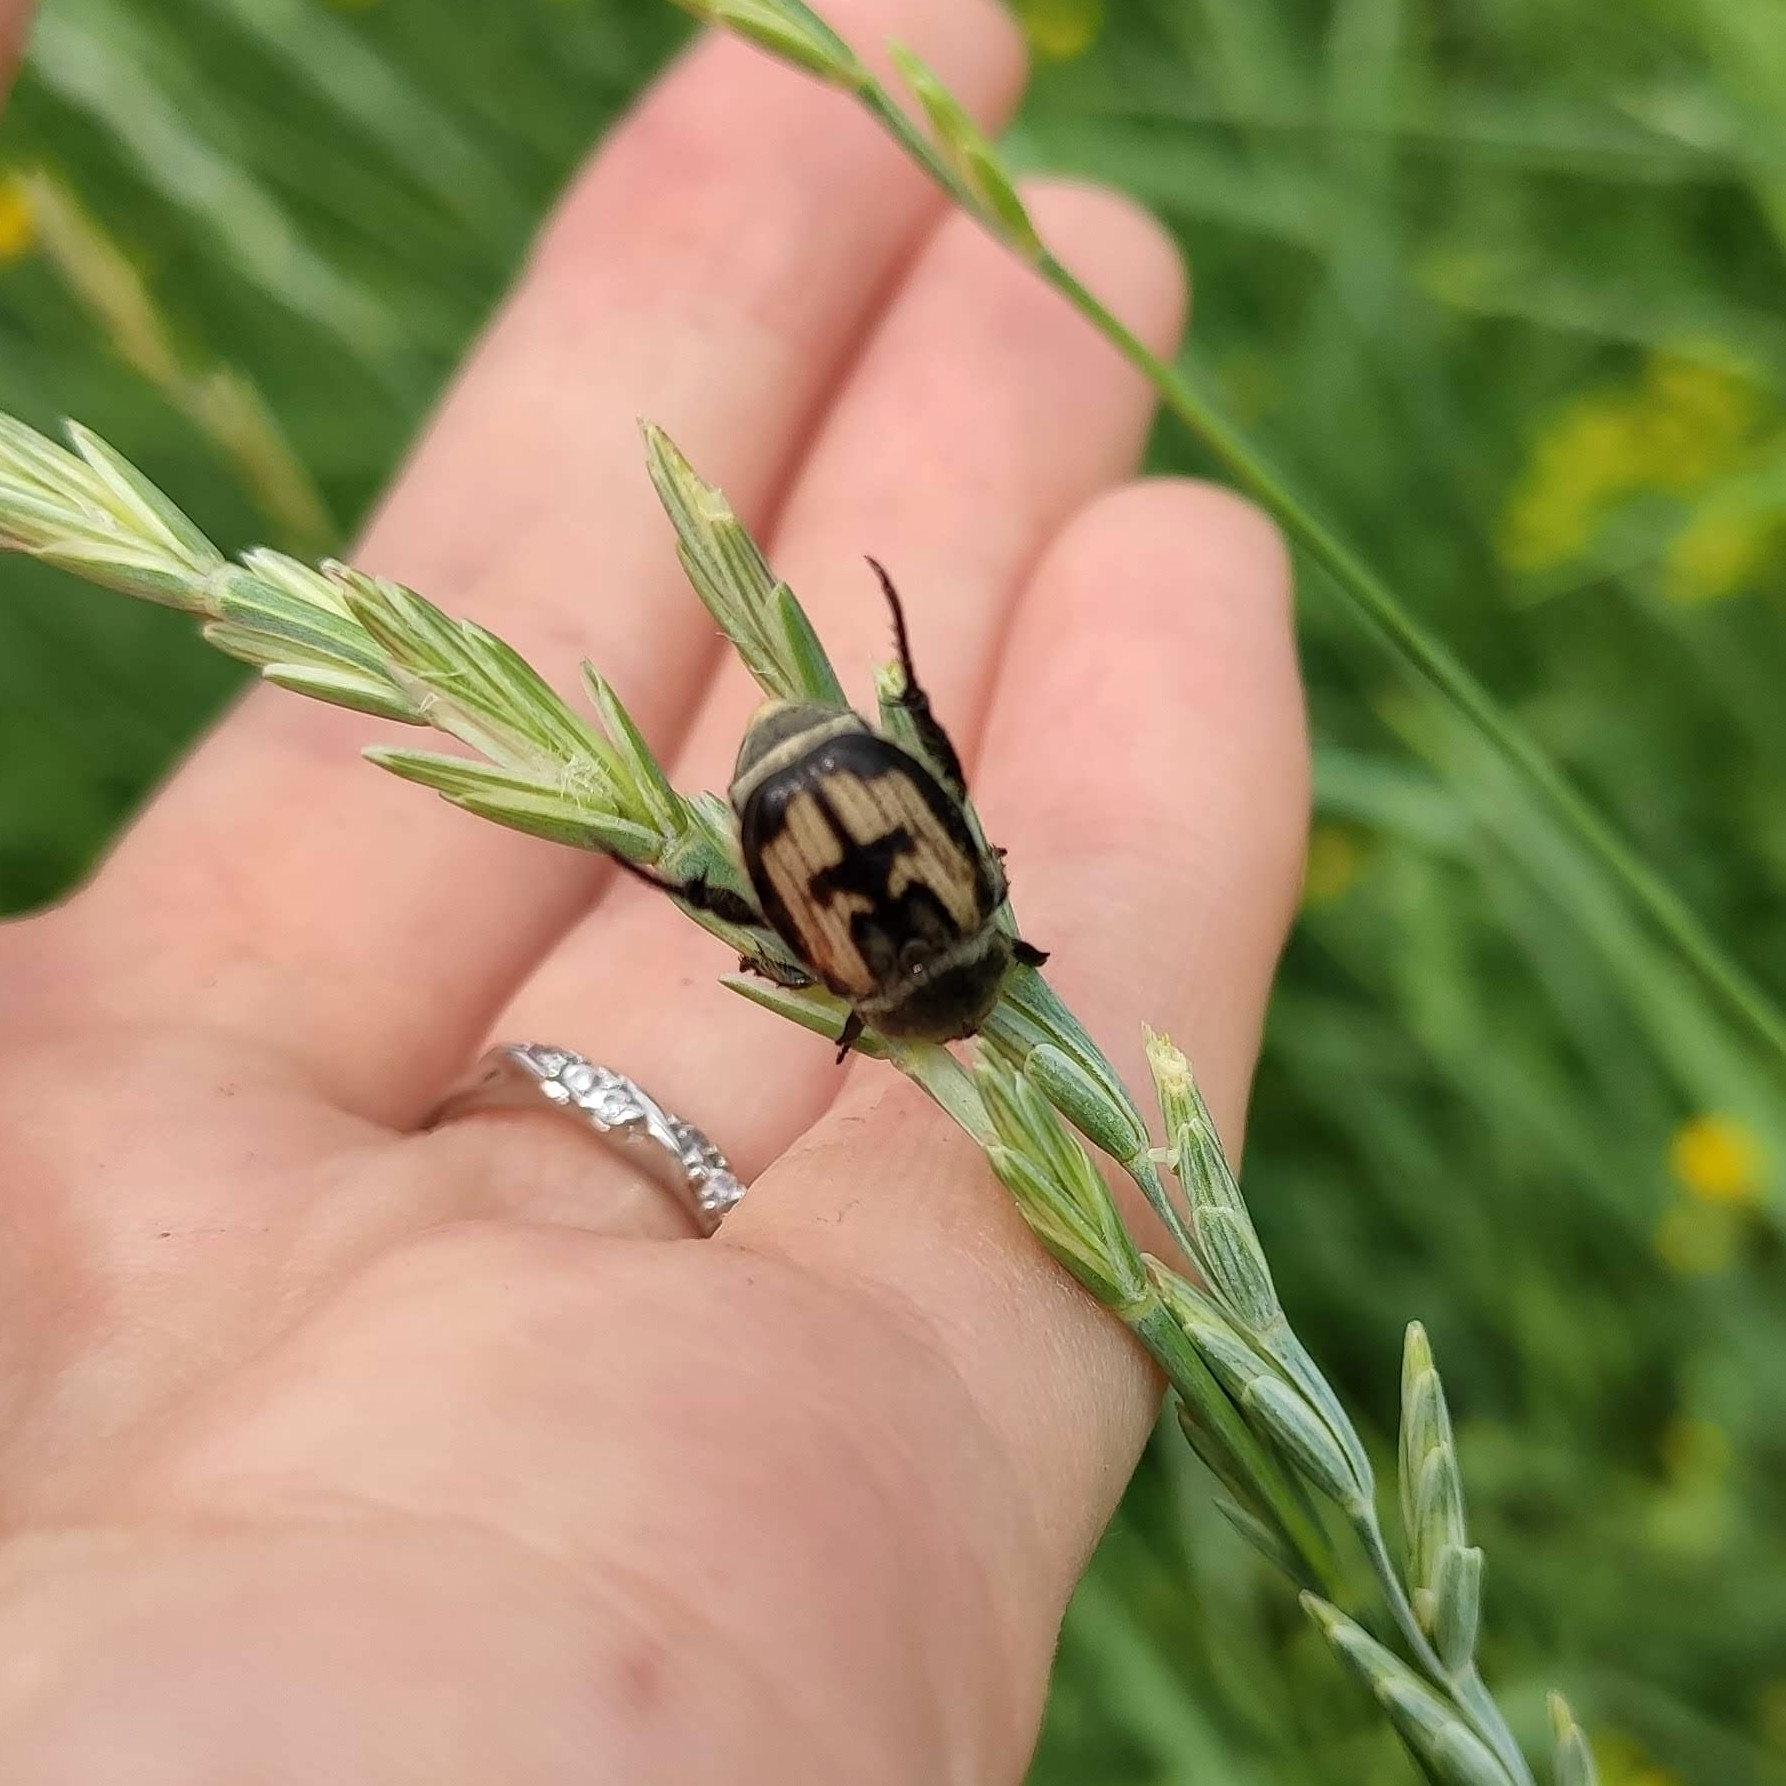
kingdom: Animalia
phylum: Arthropoda
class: Insecta
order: Coleoptera
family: Scarabaeidae
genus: Anisoplia
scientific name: Anisoplia agricola
